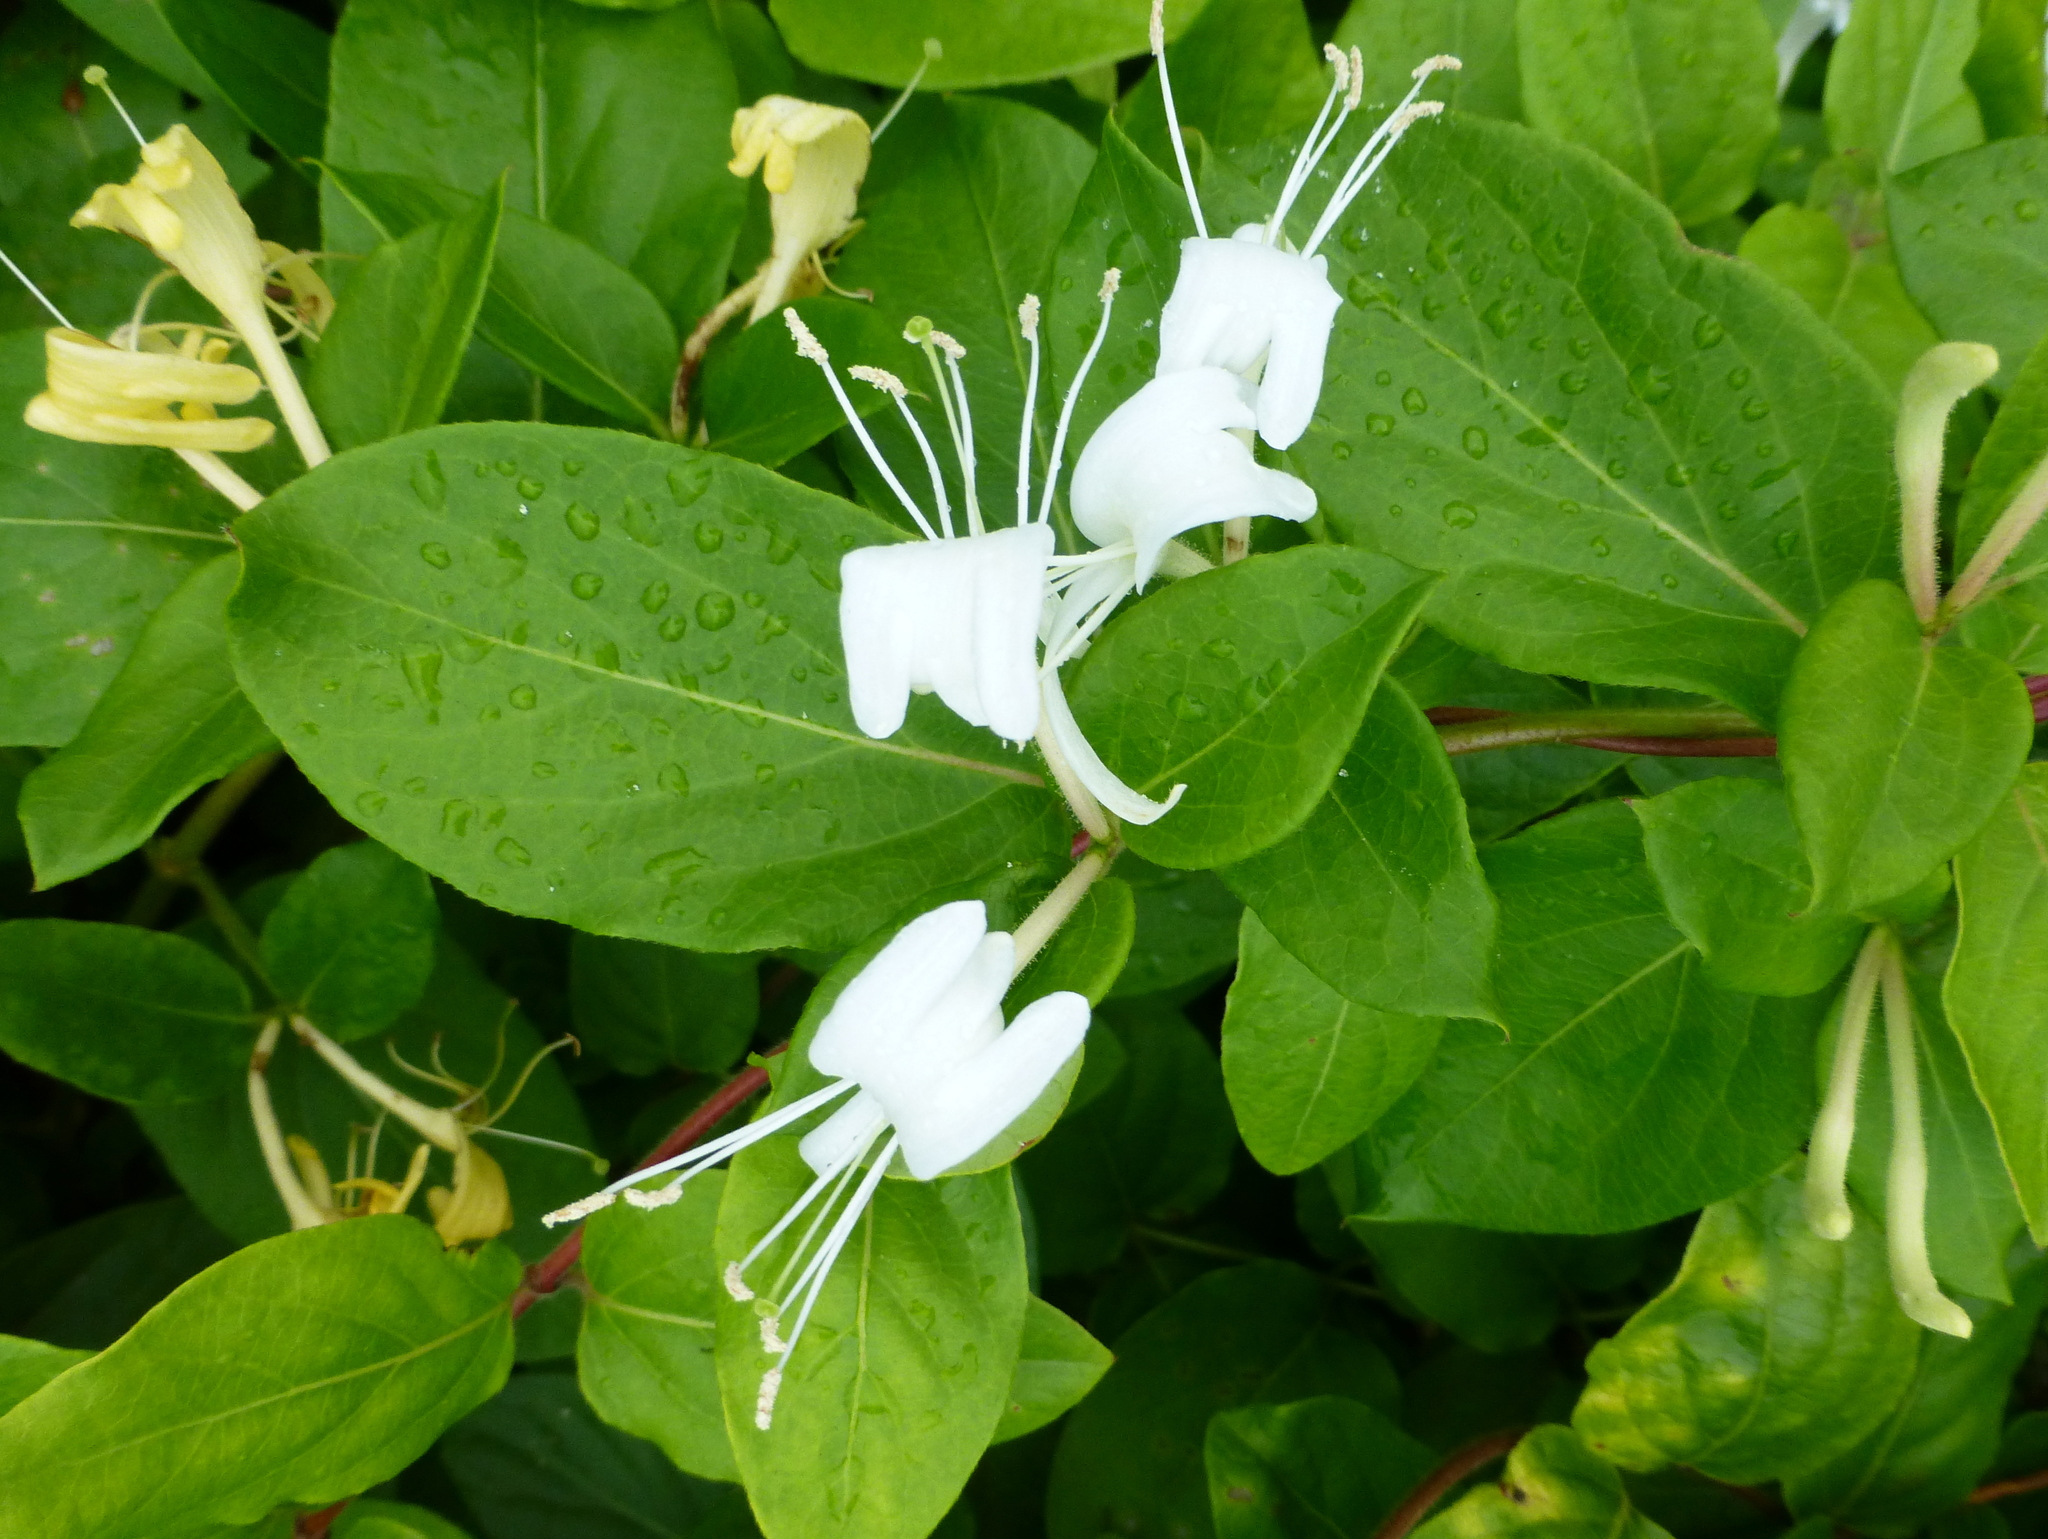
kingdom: Plantae
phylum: Tracheophyta
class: Magnoliopsida
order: Dipsacales
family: Caprifoliaceae
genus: Lonicera
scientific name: Lonicera japonica
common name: Japanese honeysuckle
